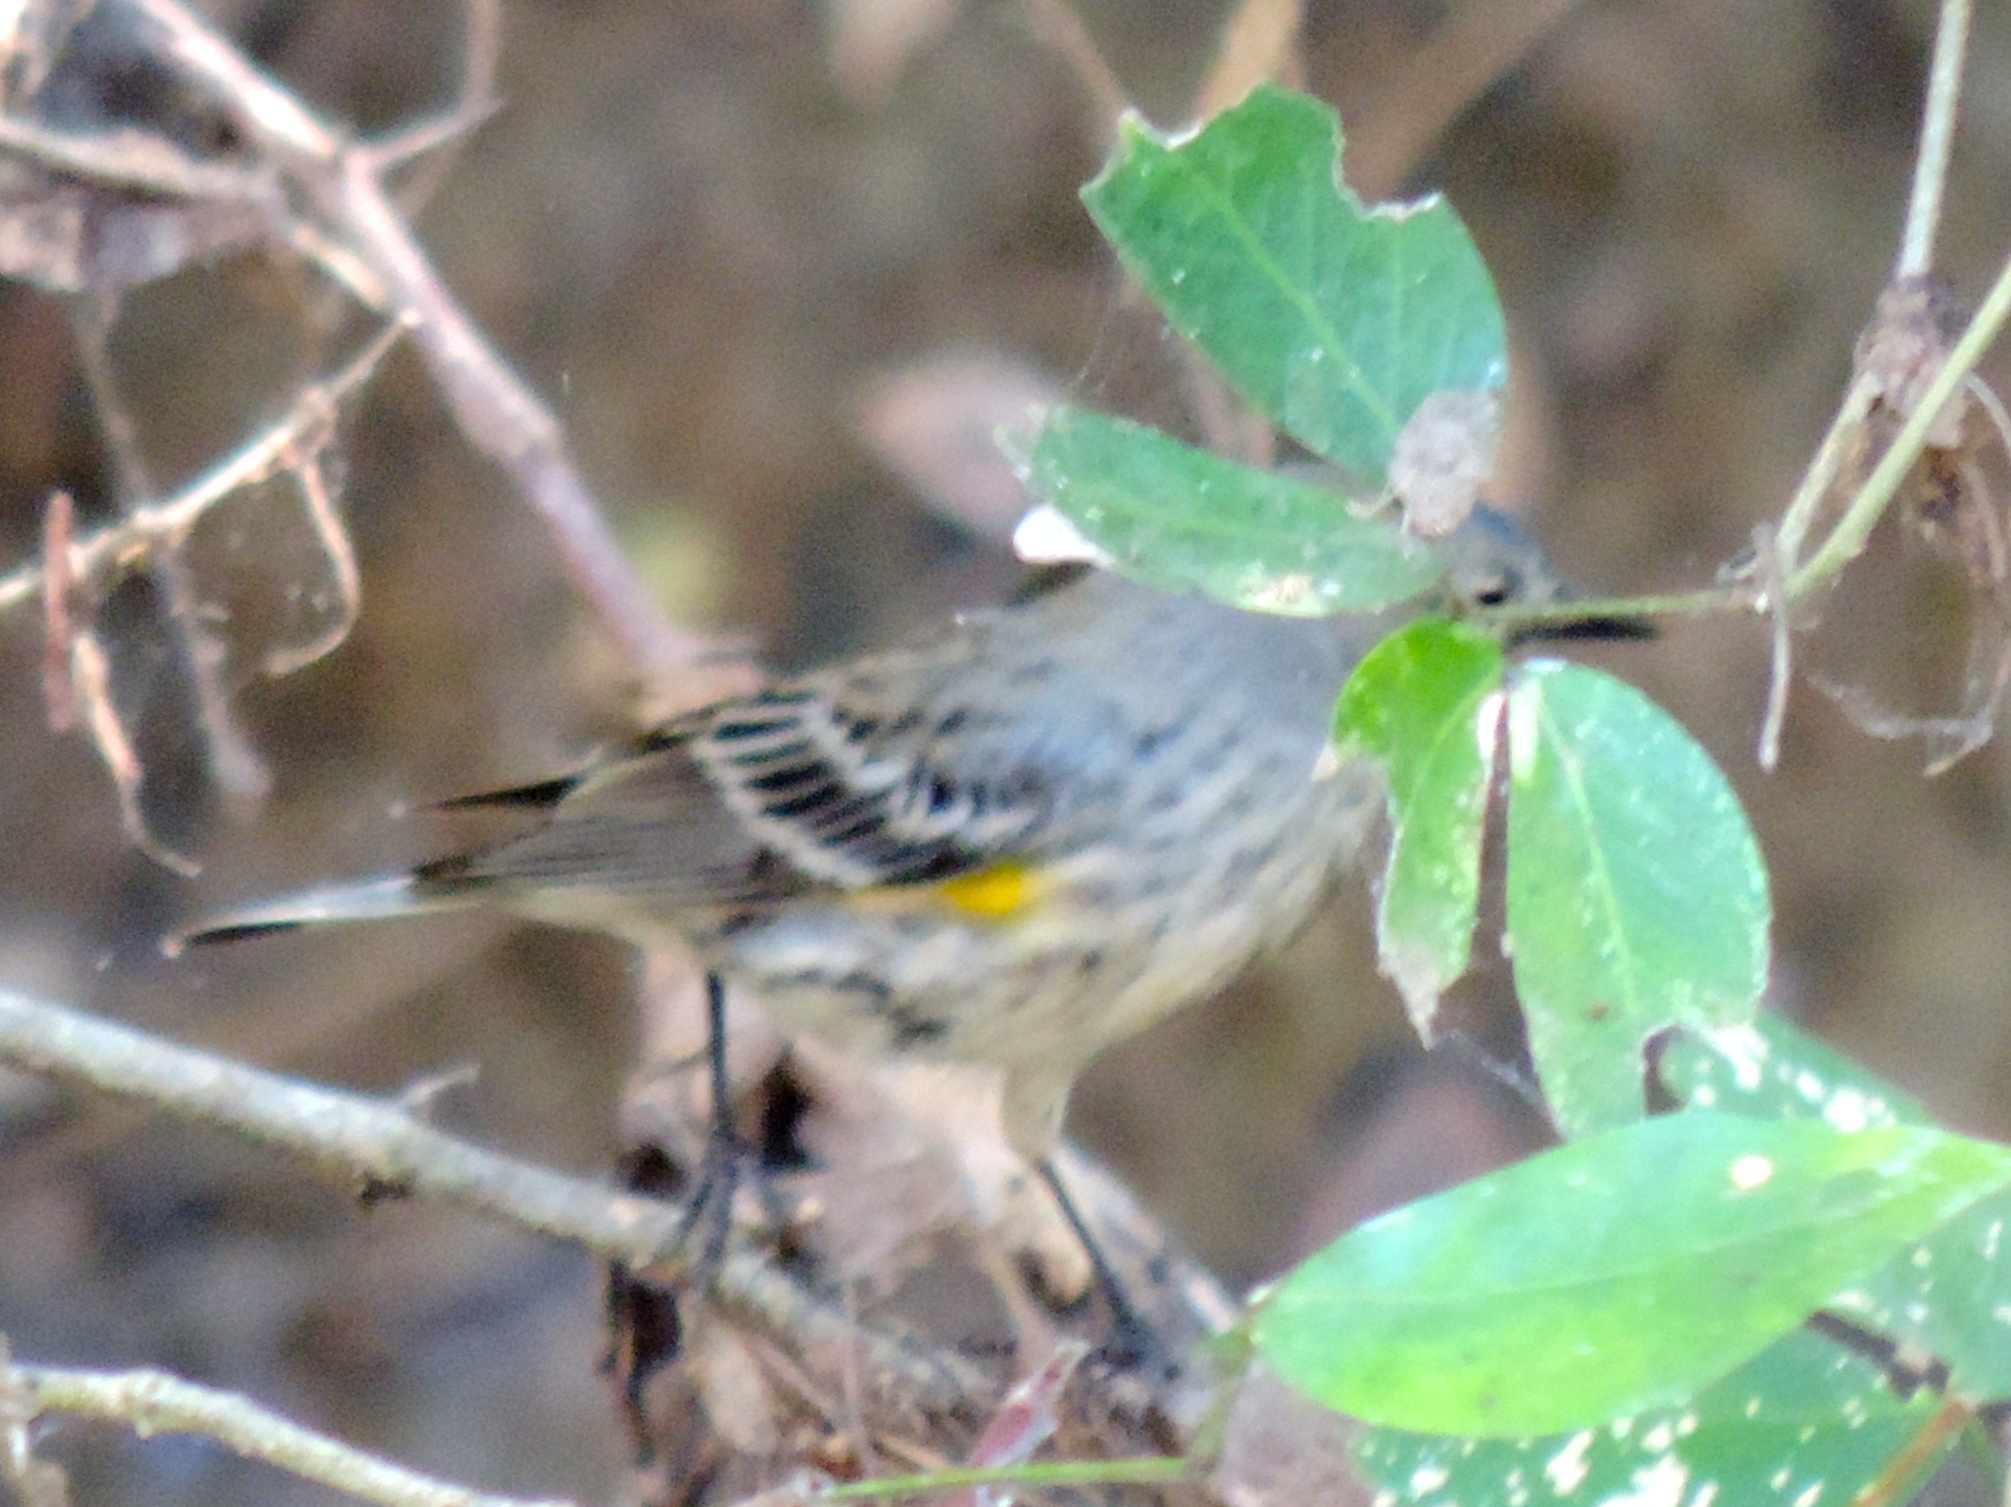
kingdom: Animalia
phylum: Chordata
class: Aves
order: Passeriformes
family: Parulidae
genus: Setophaga
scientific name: Setophaga coronata
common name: Myrtle warbler
